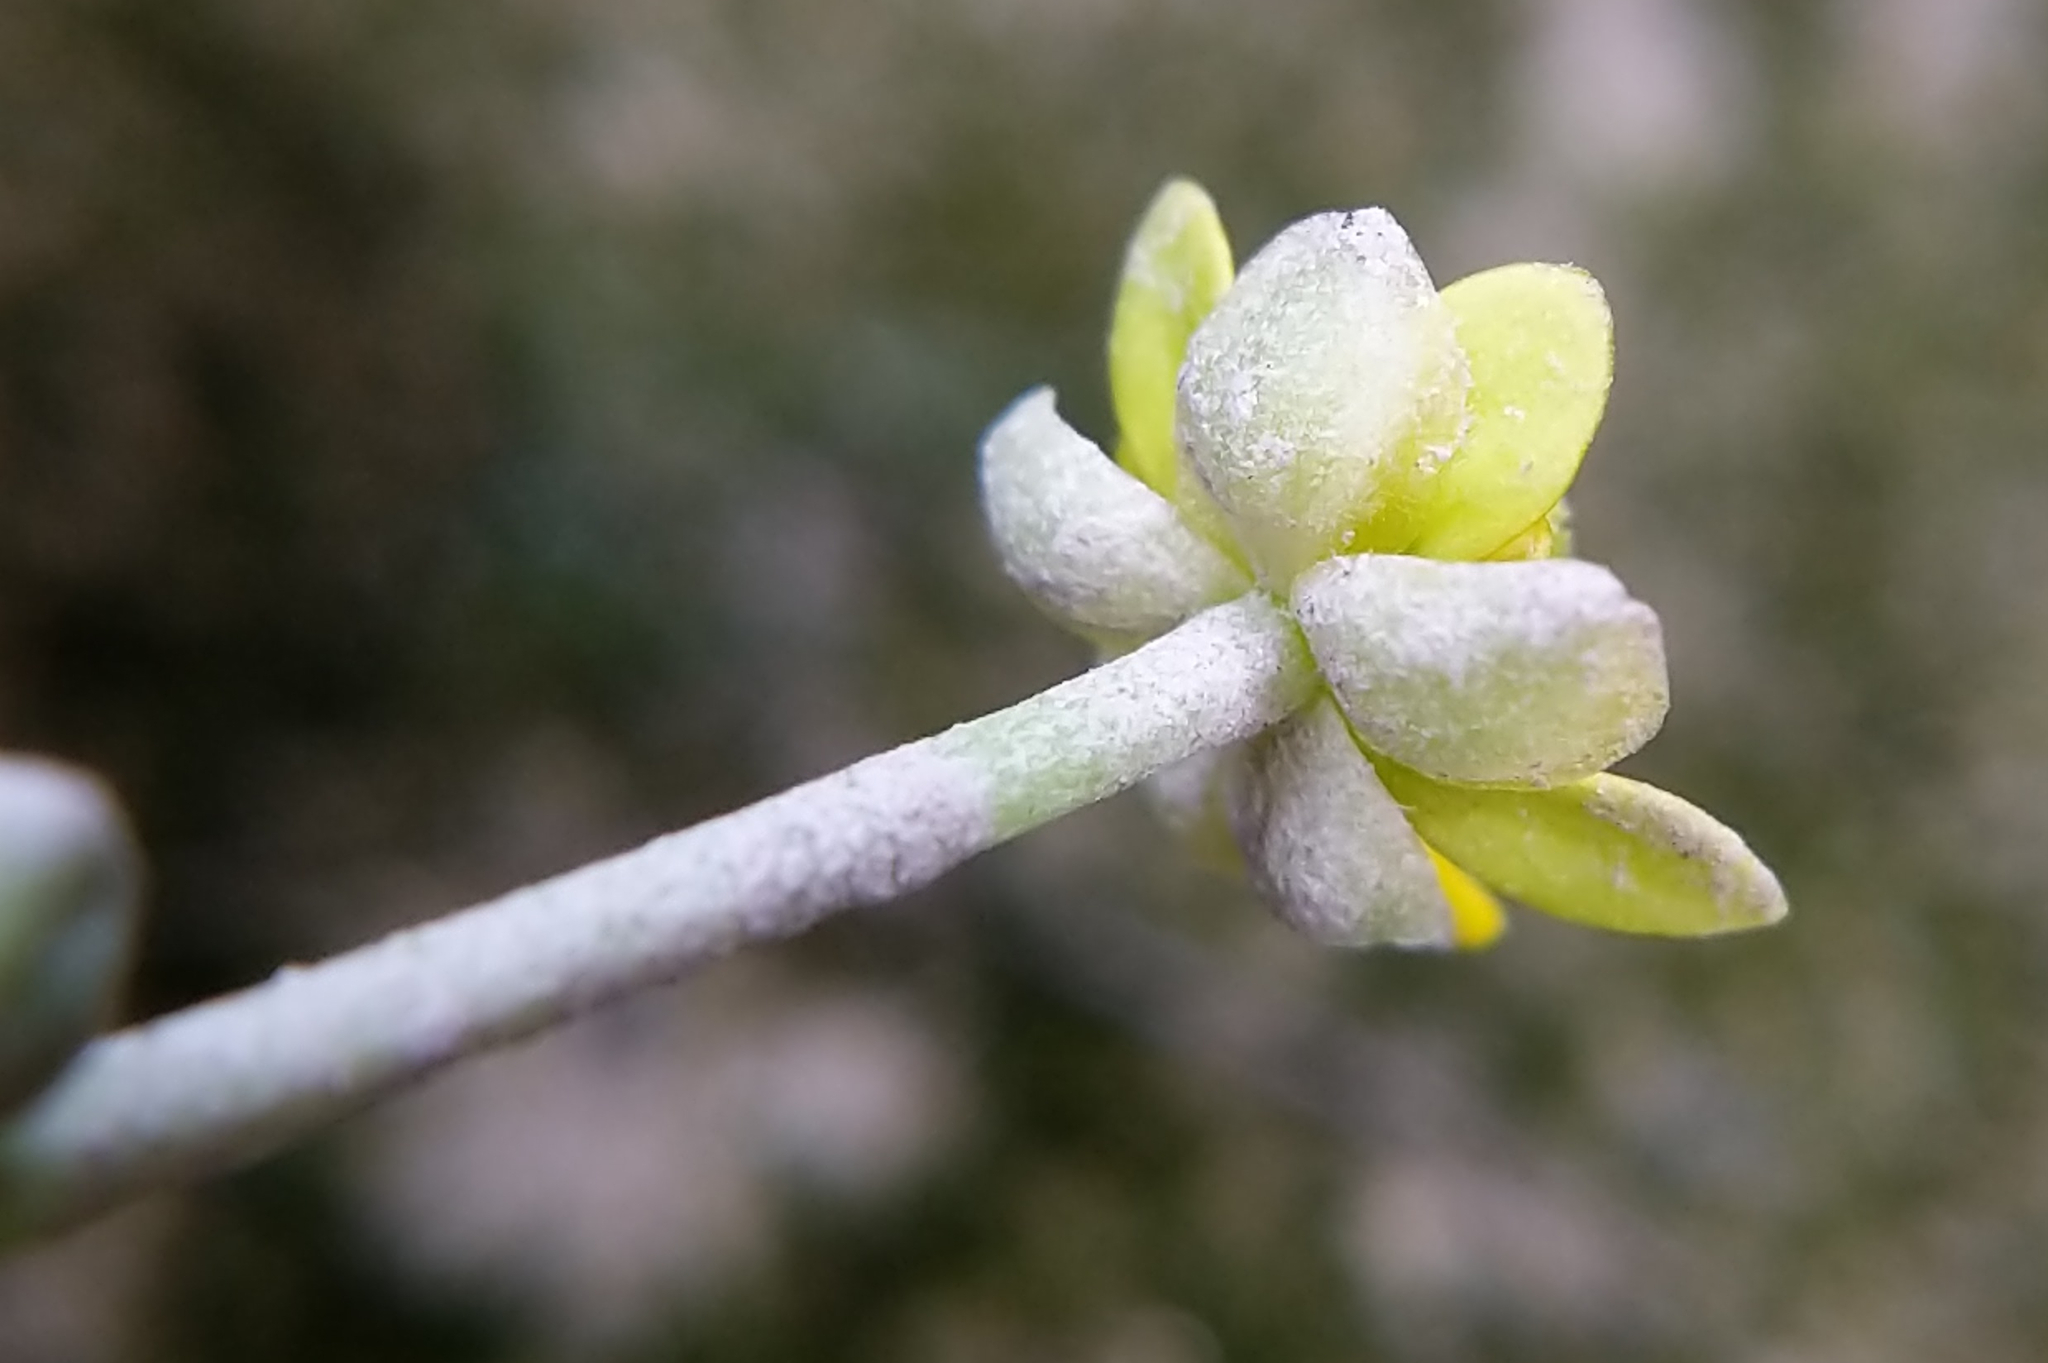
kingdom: Plantae
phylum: Tracheophyta
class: Magnoliopsida
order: Ranunculales
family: Ranunculaceae
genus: Halerpestes
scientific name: Halerpestes cymbalaria
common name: Seaside crowfoot
